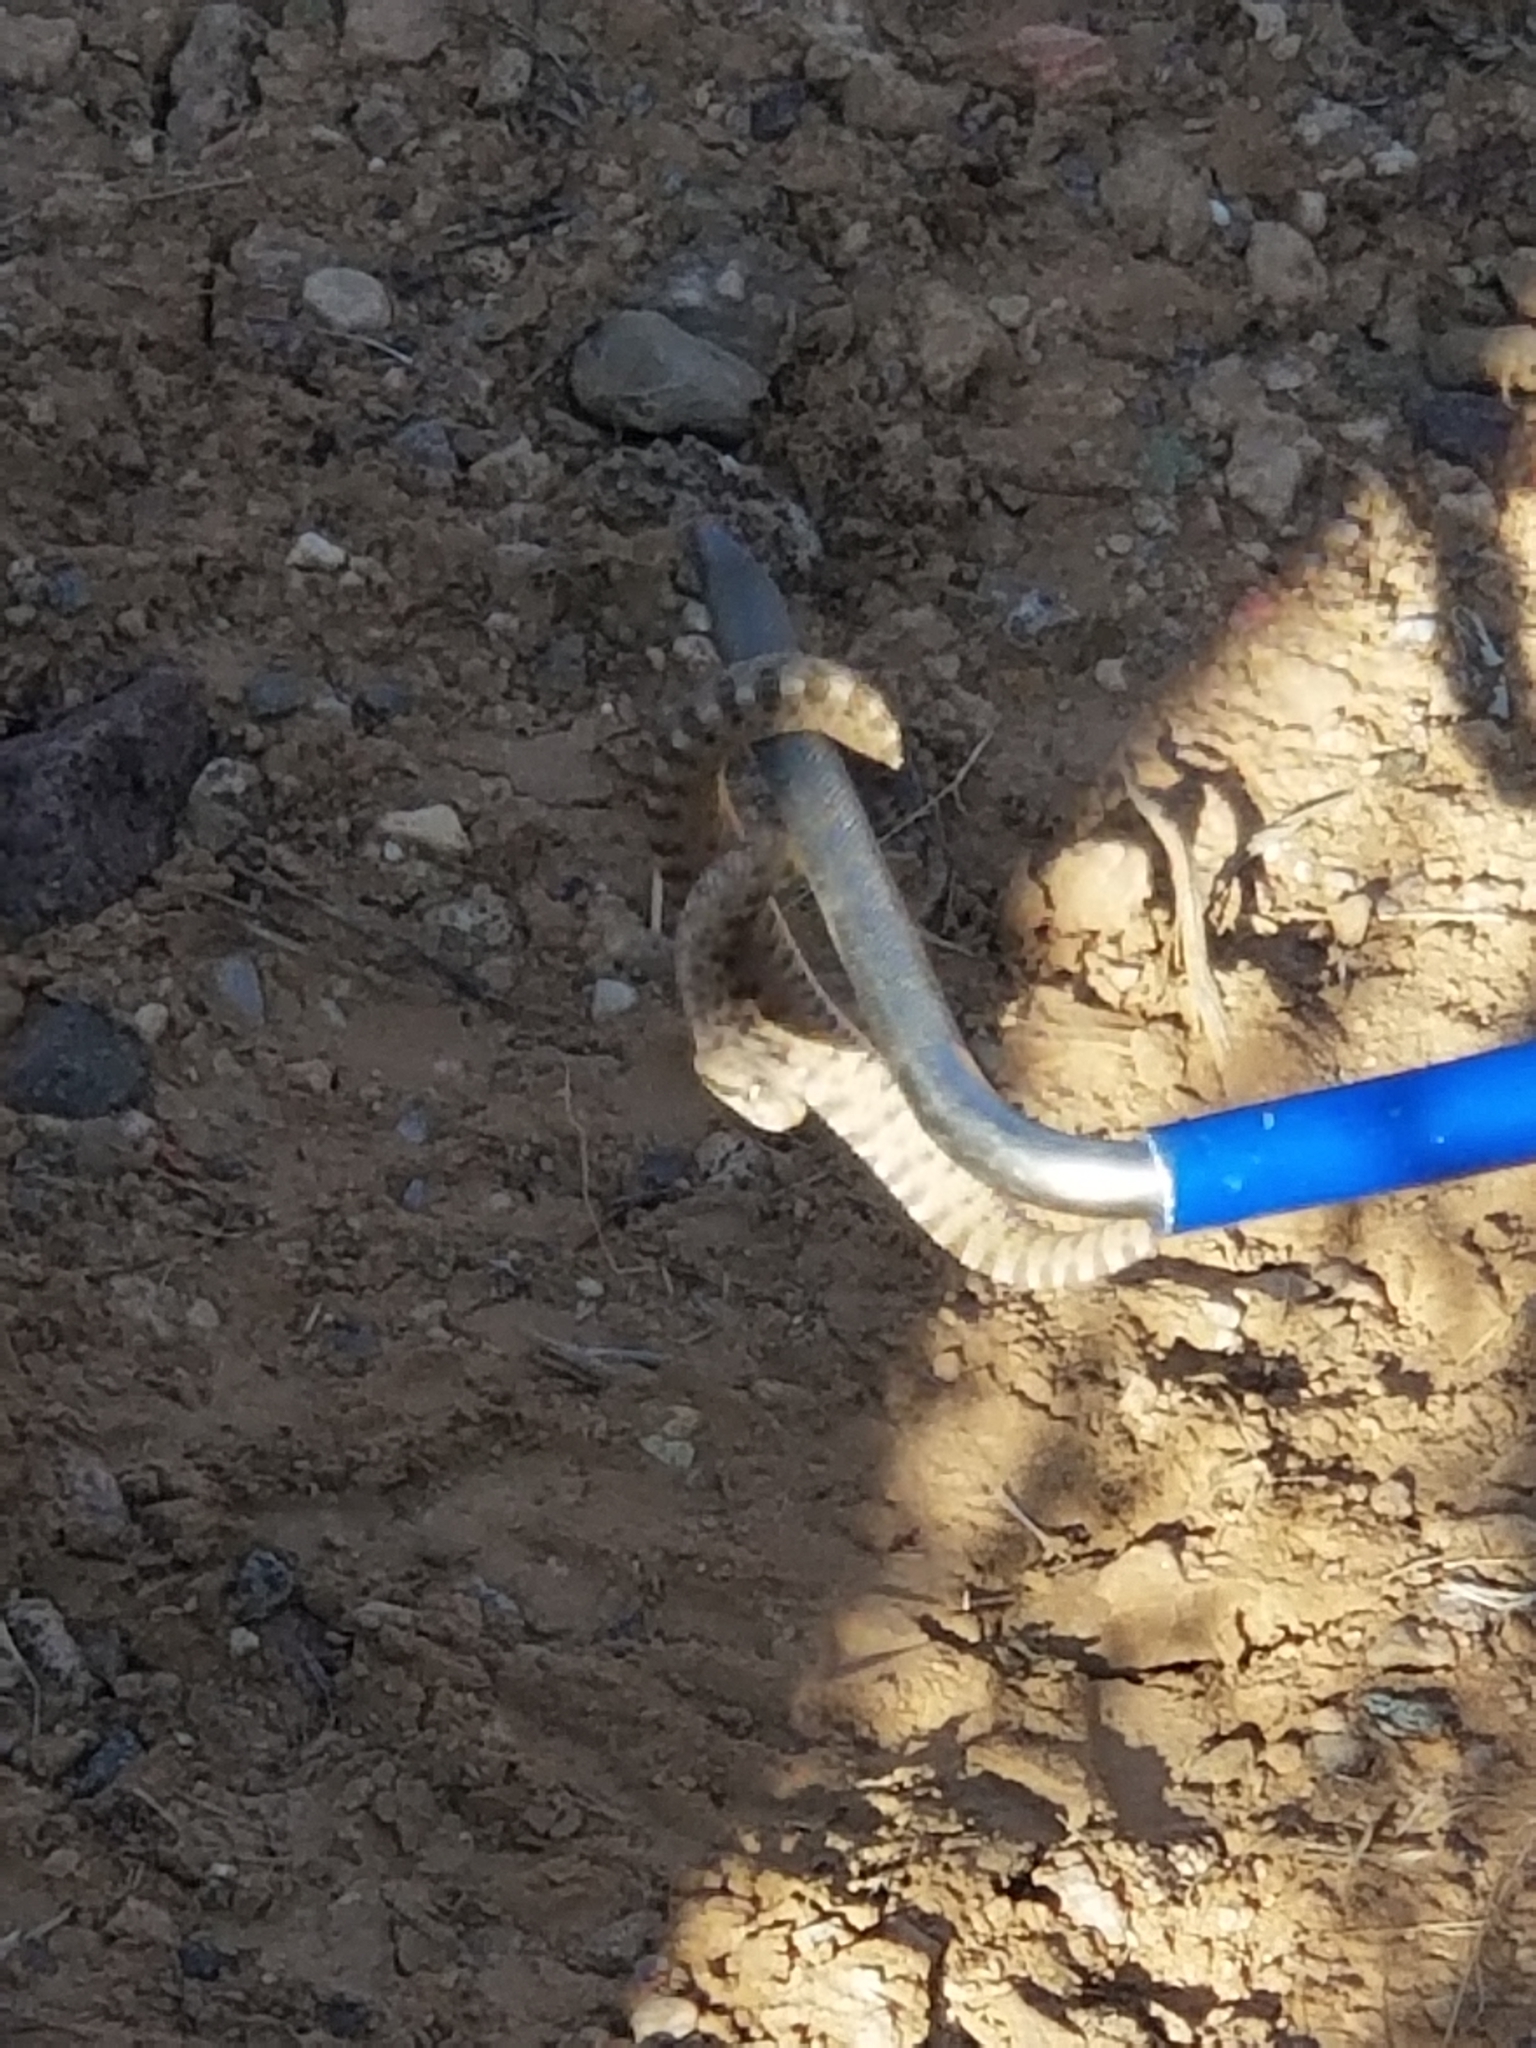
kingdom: Animalia
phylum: Chordata
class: Squamata
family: Viperidae
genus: Crotalus
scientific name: Crotalus cerastes
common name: Sidewinder
